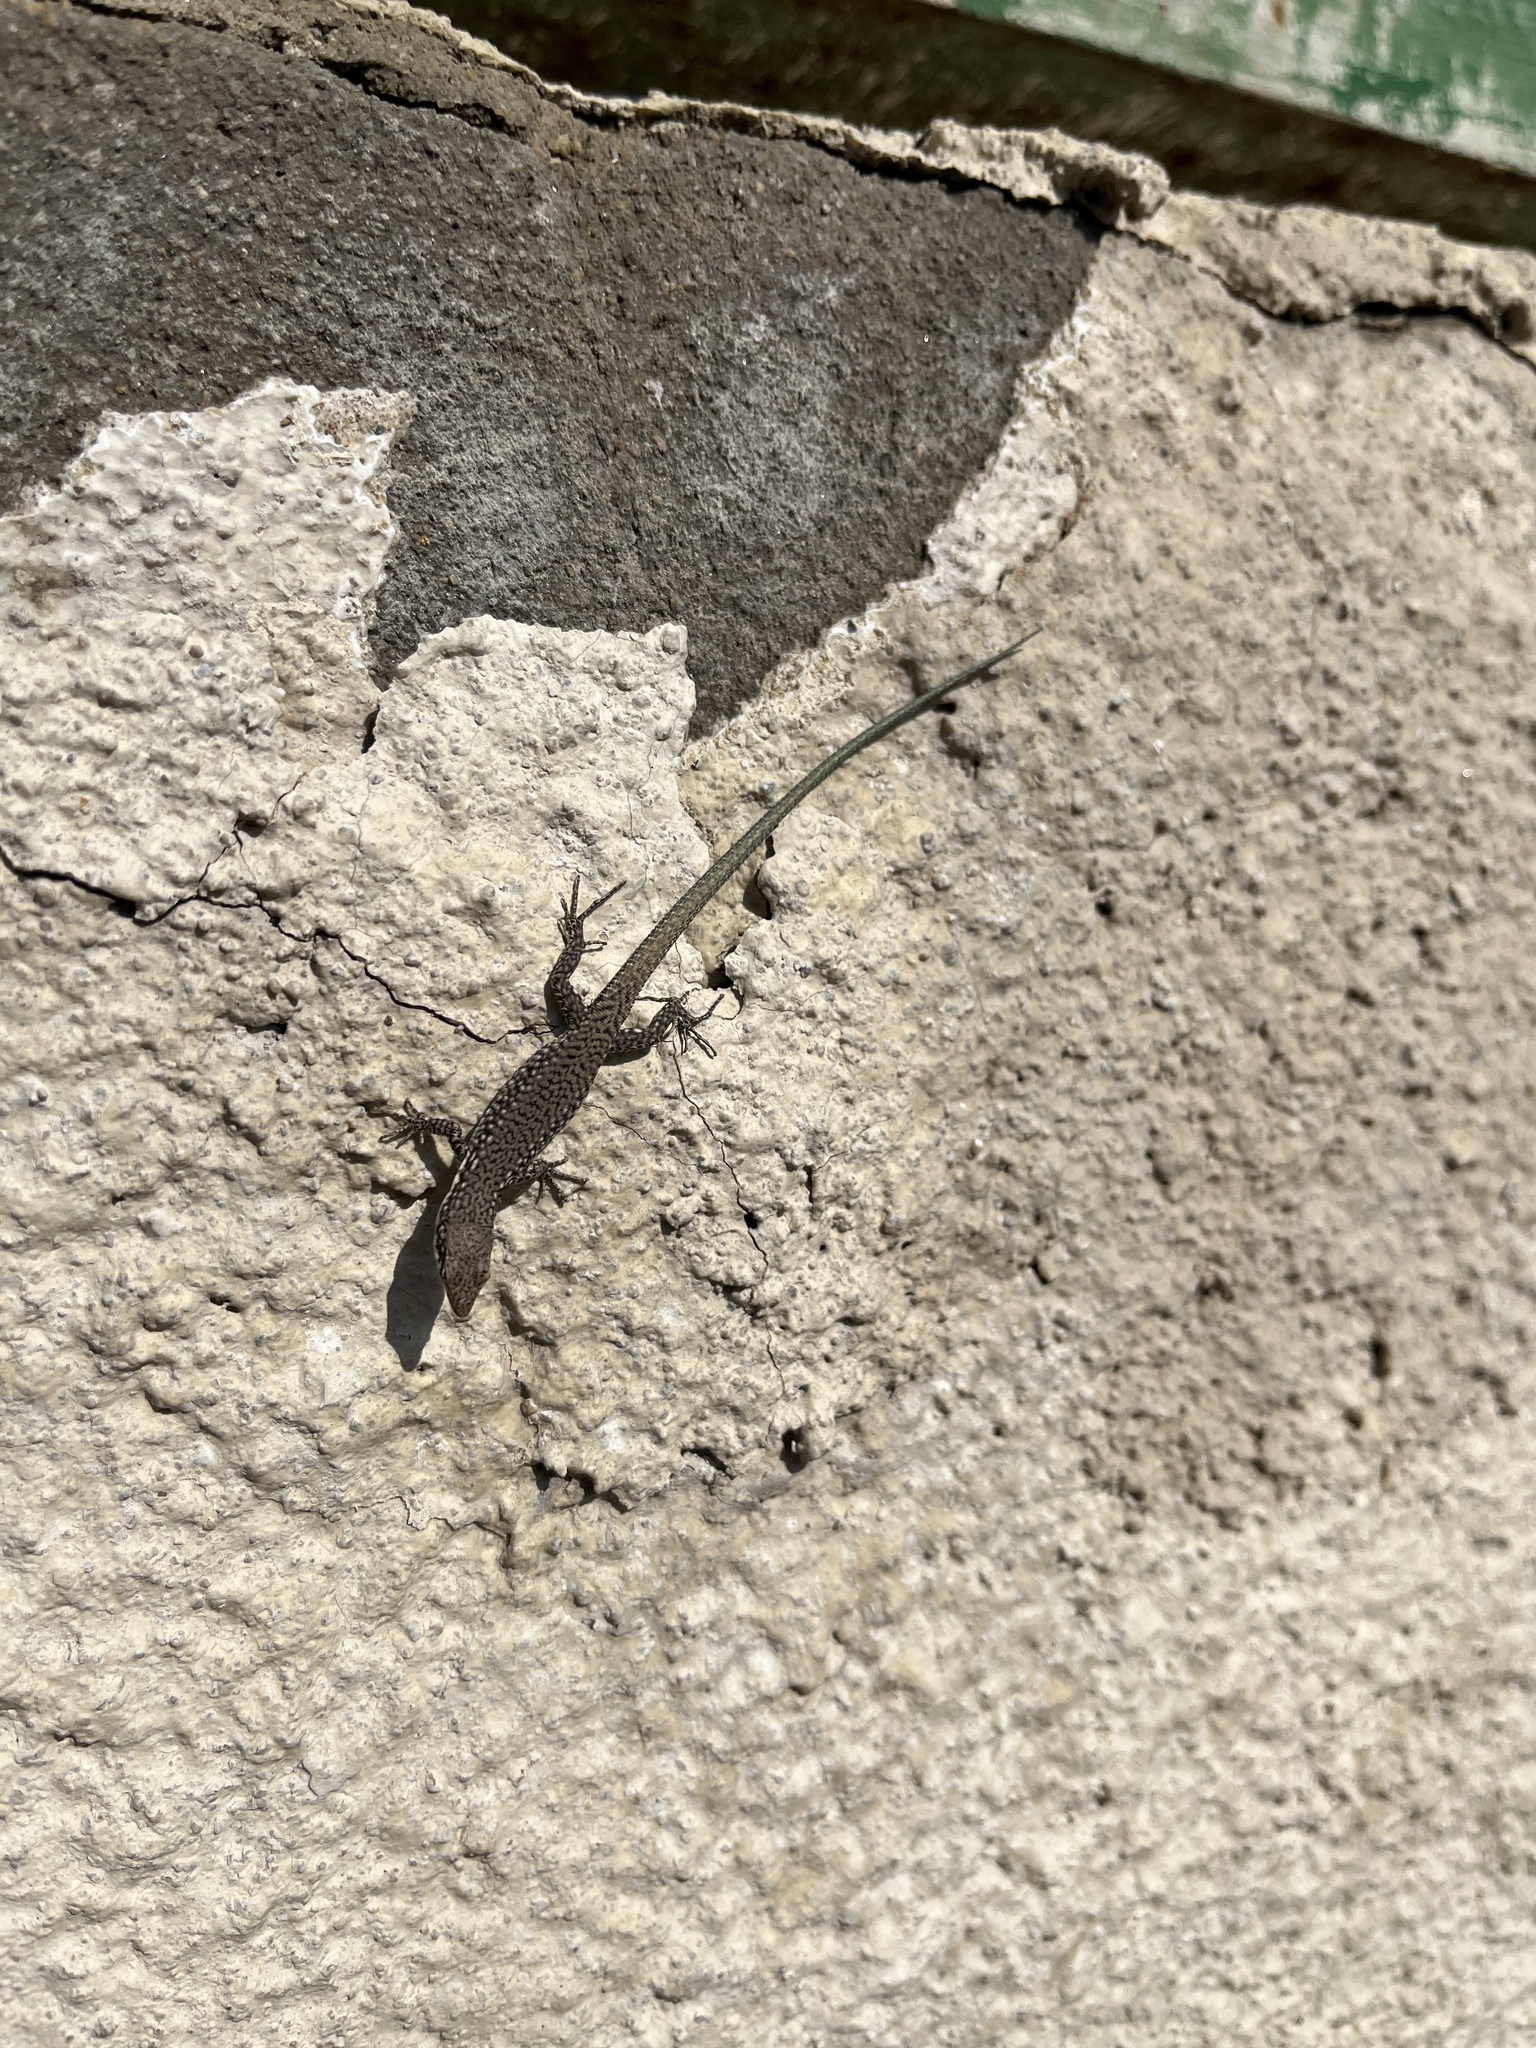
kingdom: Animalia
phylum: Chordata
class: Squamata
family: Lacertidae
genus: Darevskia
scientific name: Darevskia portschinskii
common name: River kura lizard
